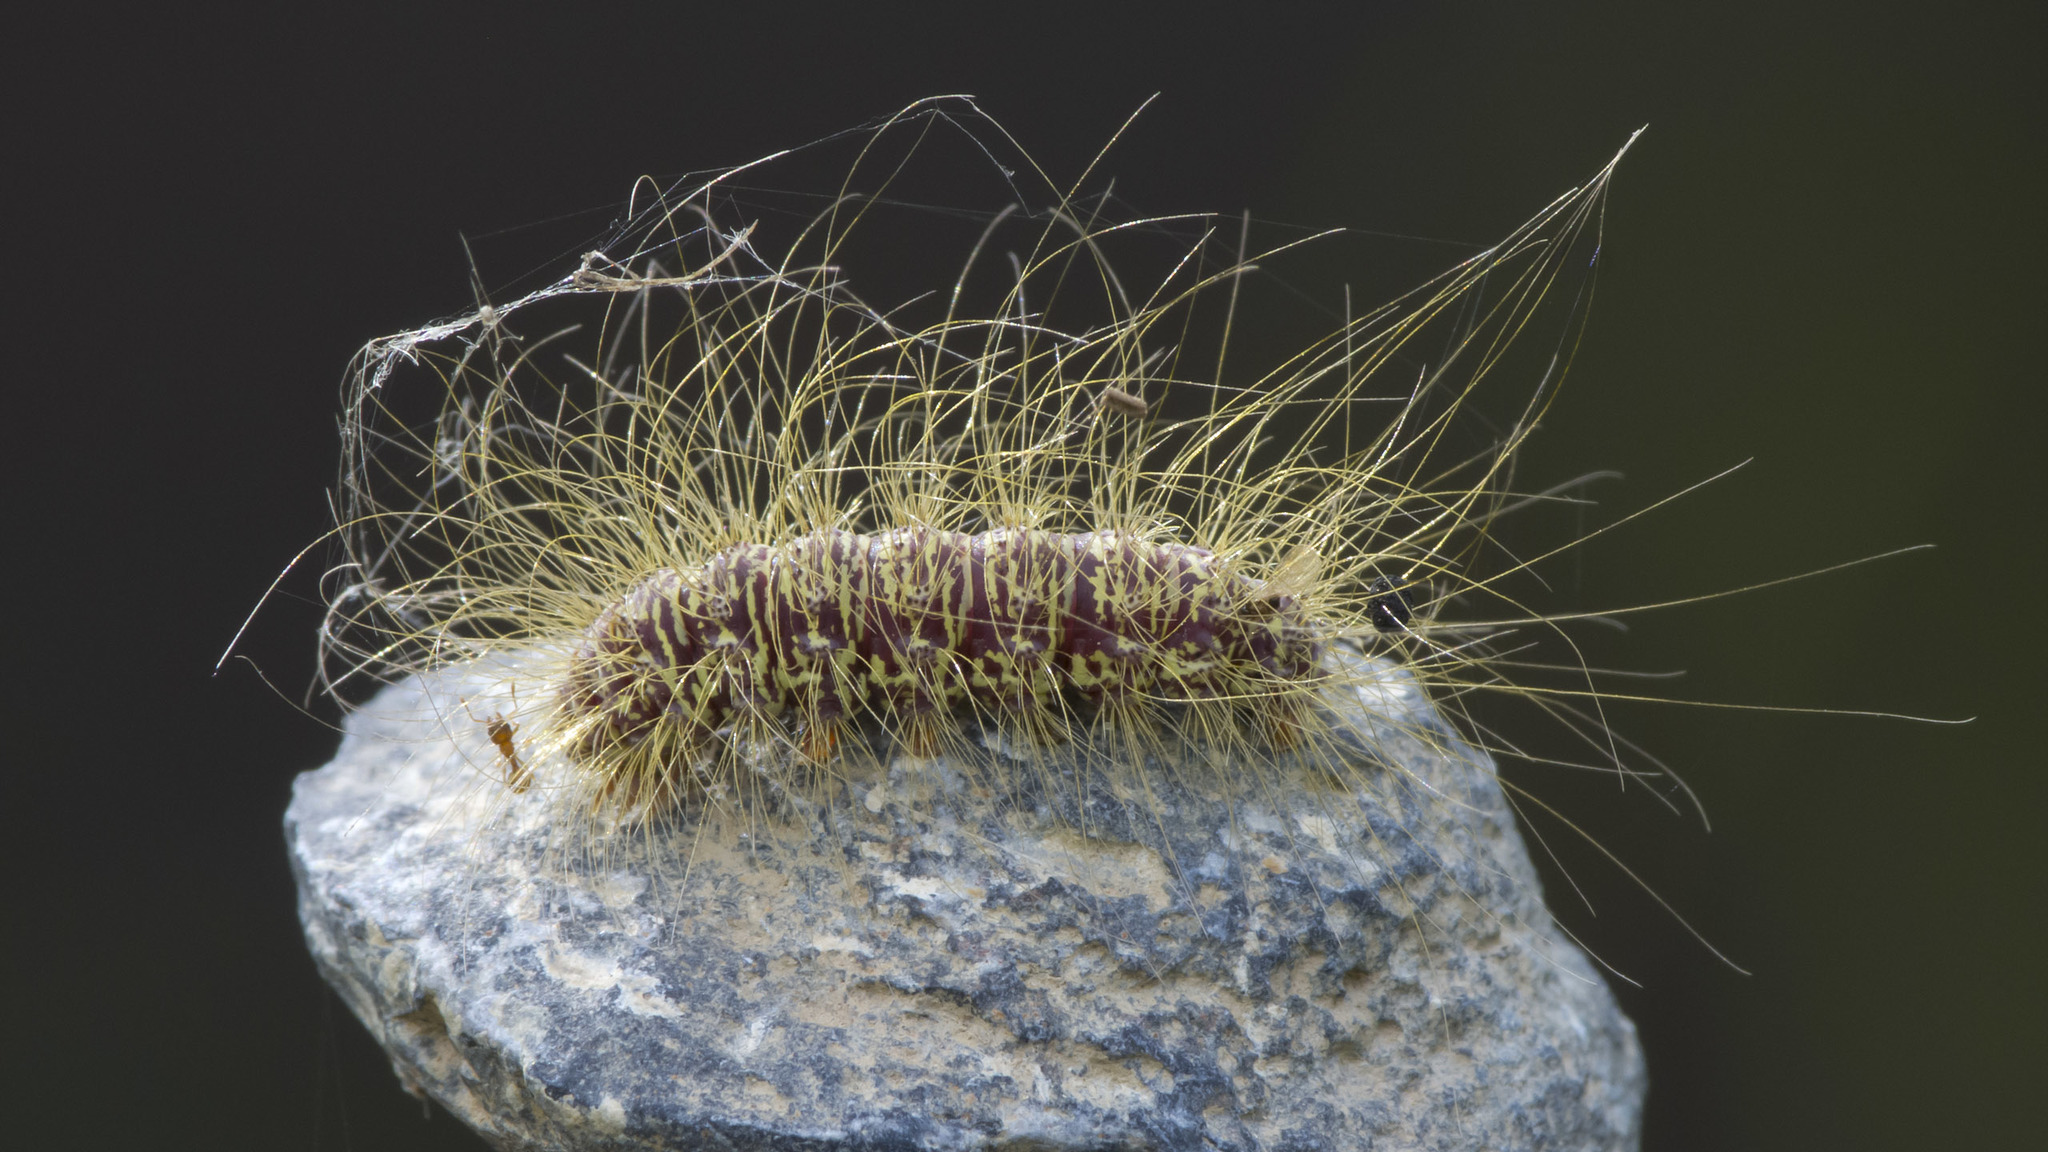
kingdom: Animalia
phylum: Arthropoda
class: Insecta
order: Lepidoptera
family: Erebidae
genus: Eudesmia
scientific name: Eudesmia menea
